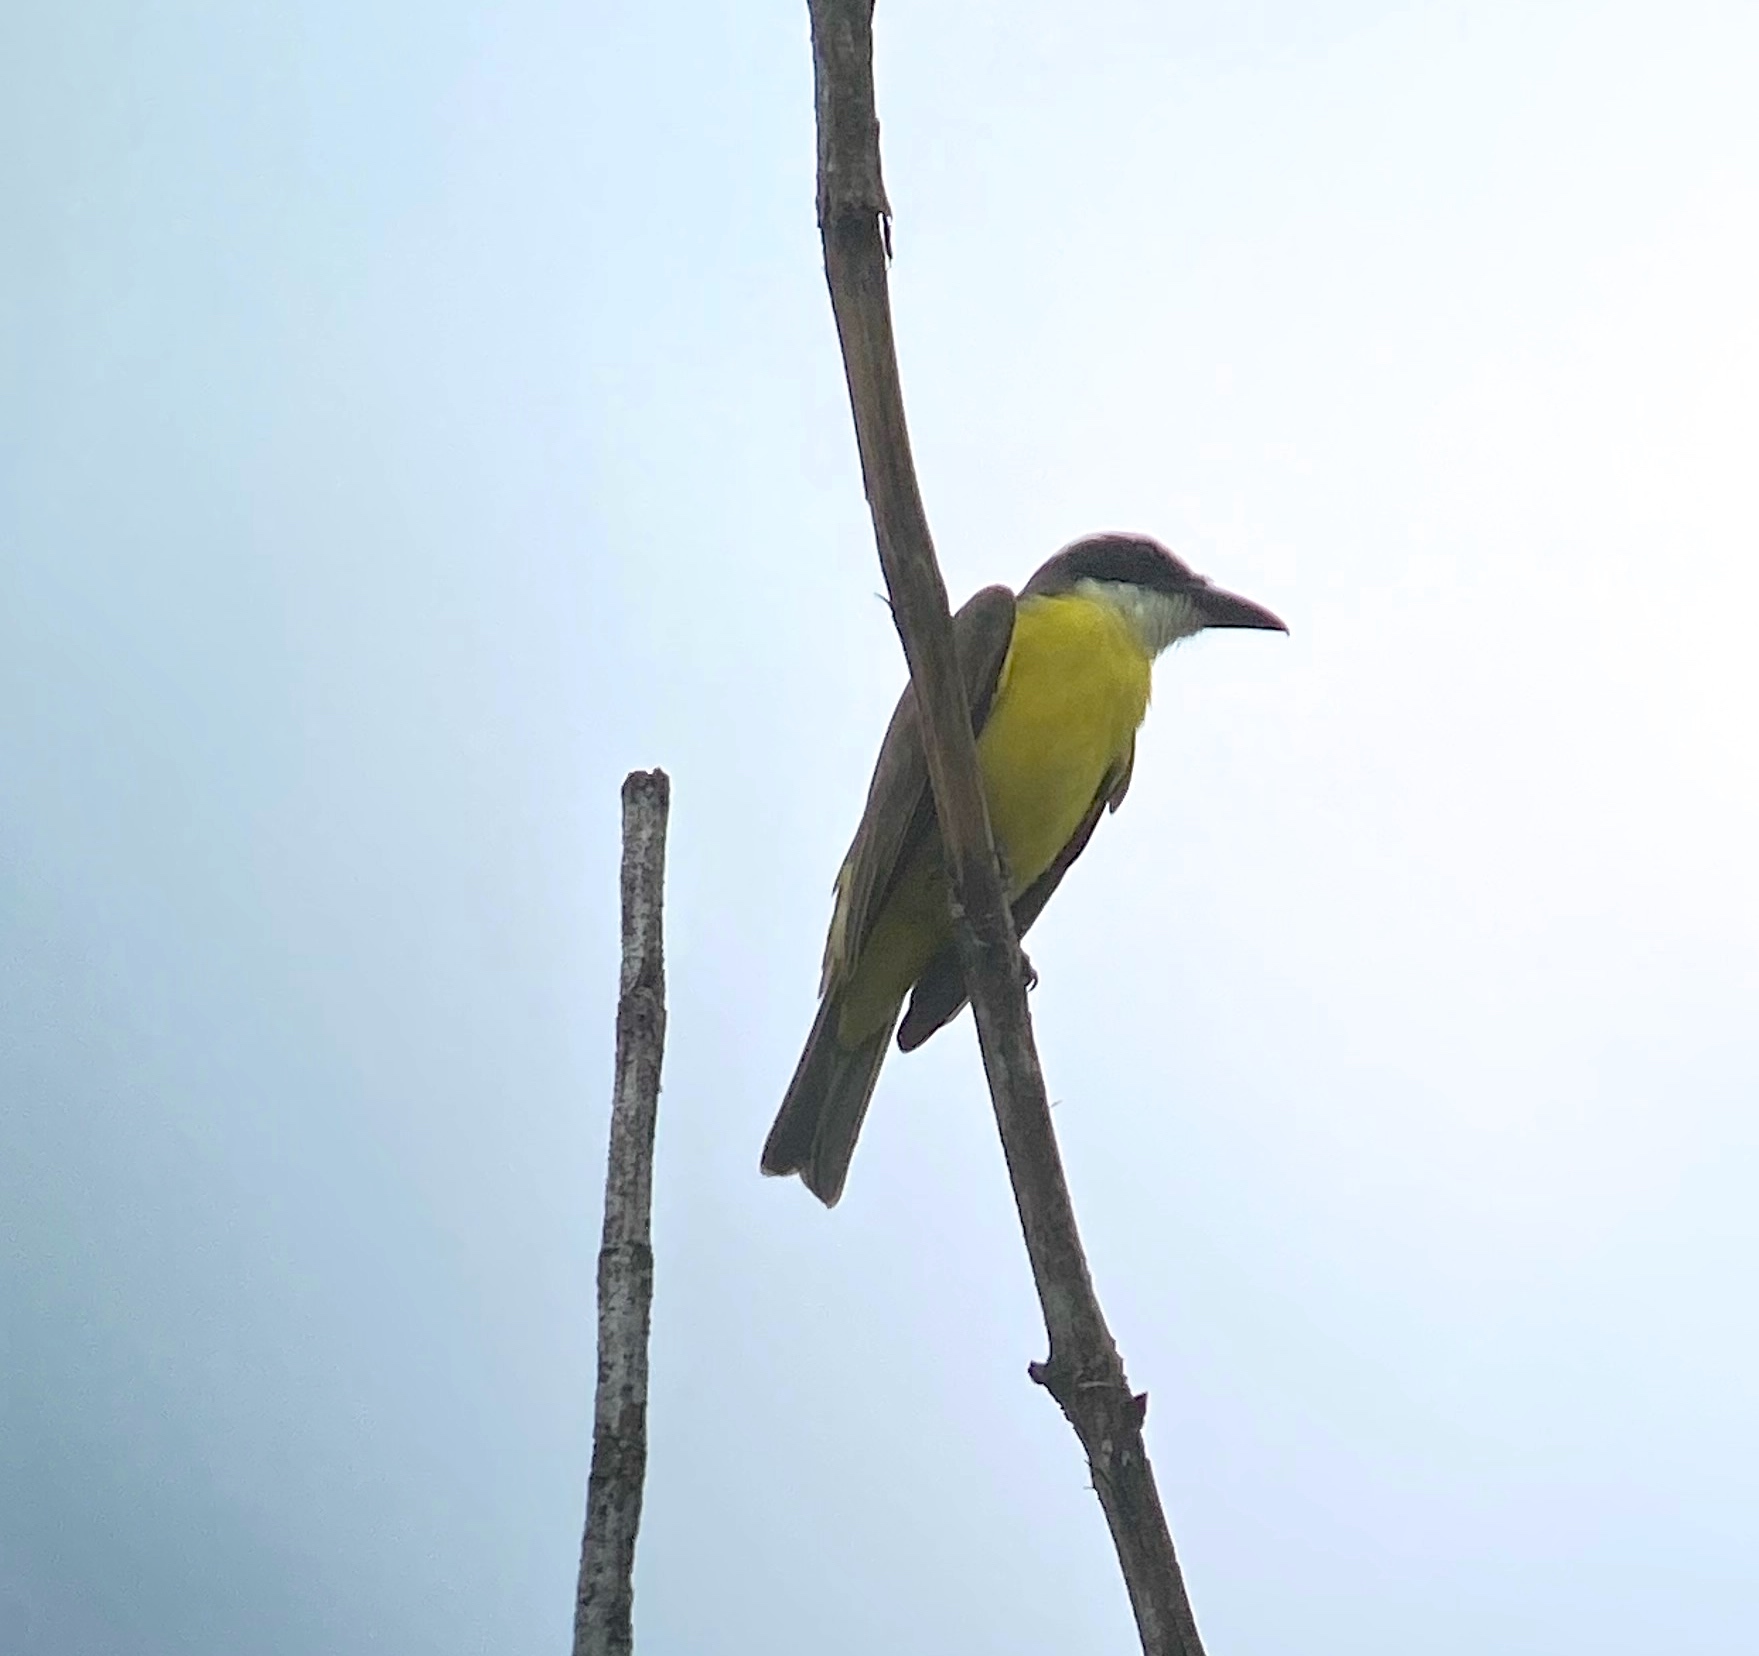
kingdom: Animalia
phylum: Chordata
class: Aves
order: Passeriformes
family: Tyrannidae
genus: Megarynchus
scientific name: Megarynchus pitangua
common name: Boat-billed flycatcher
